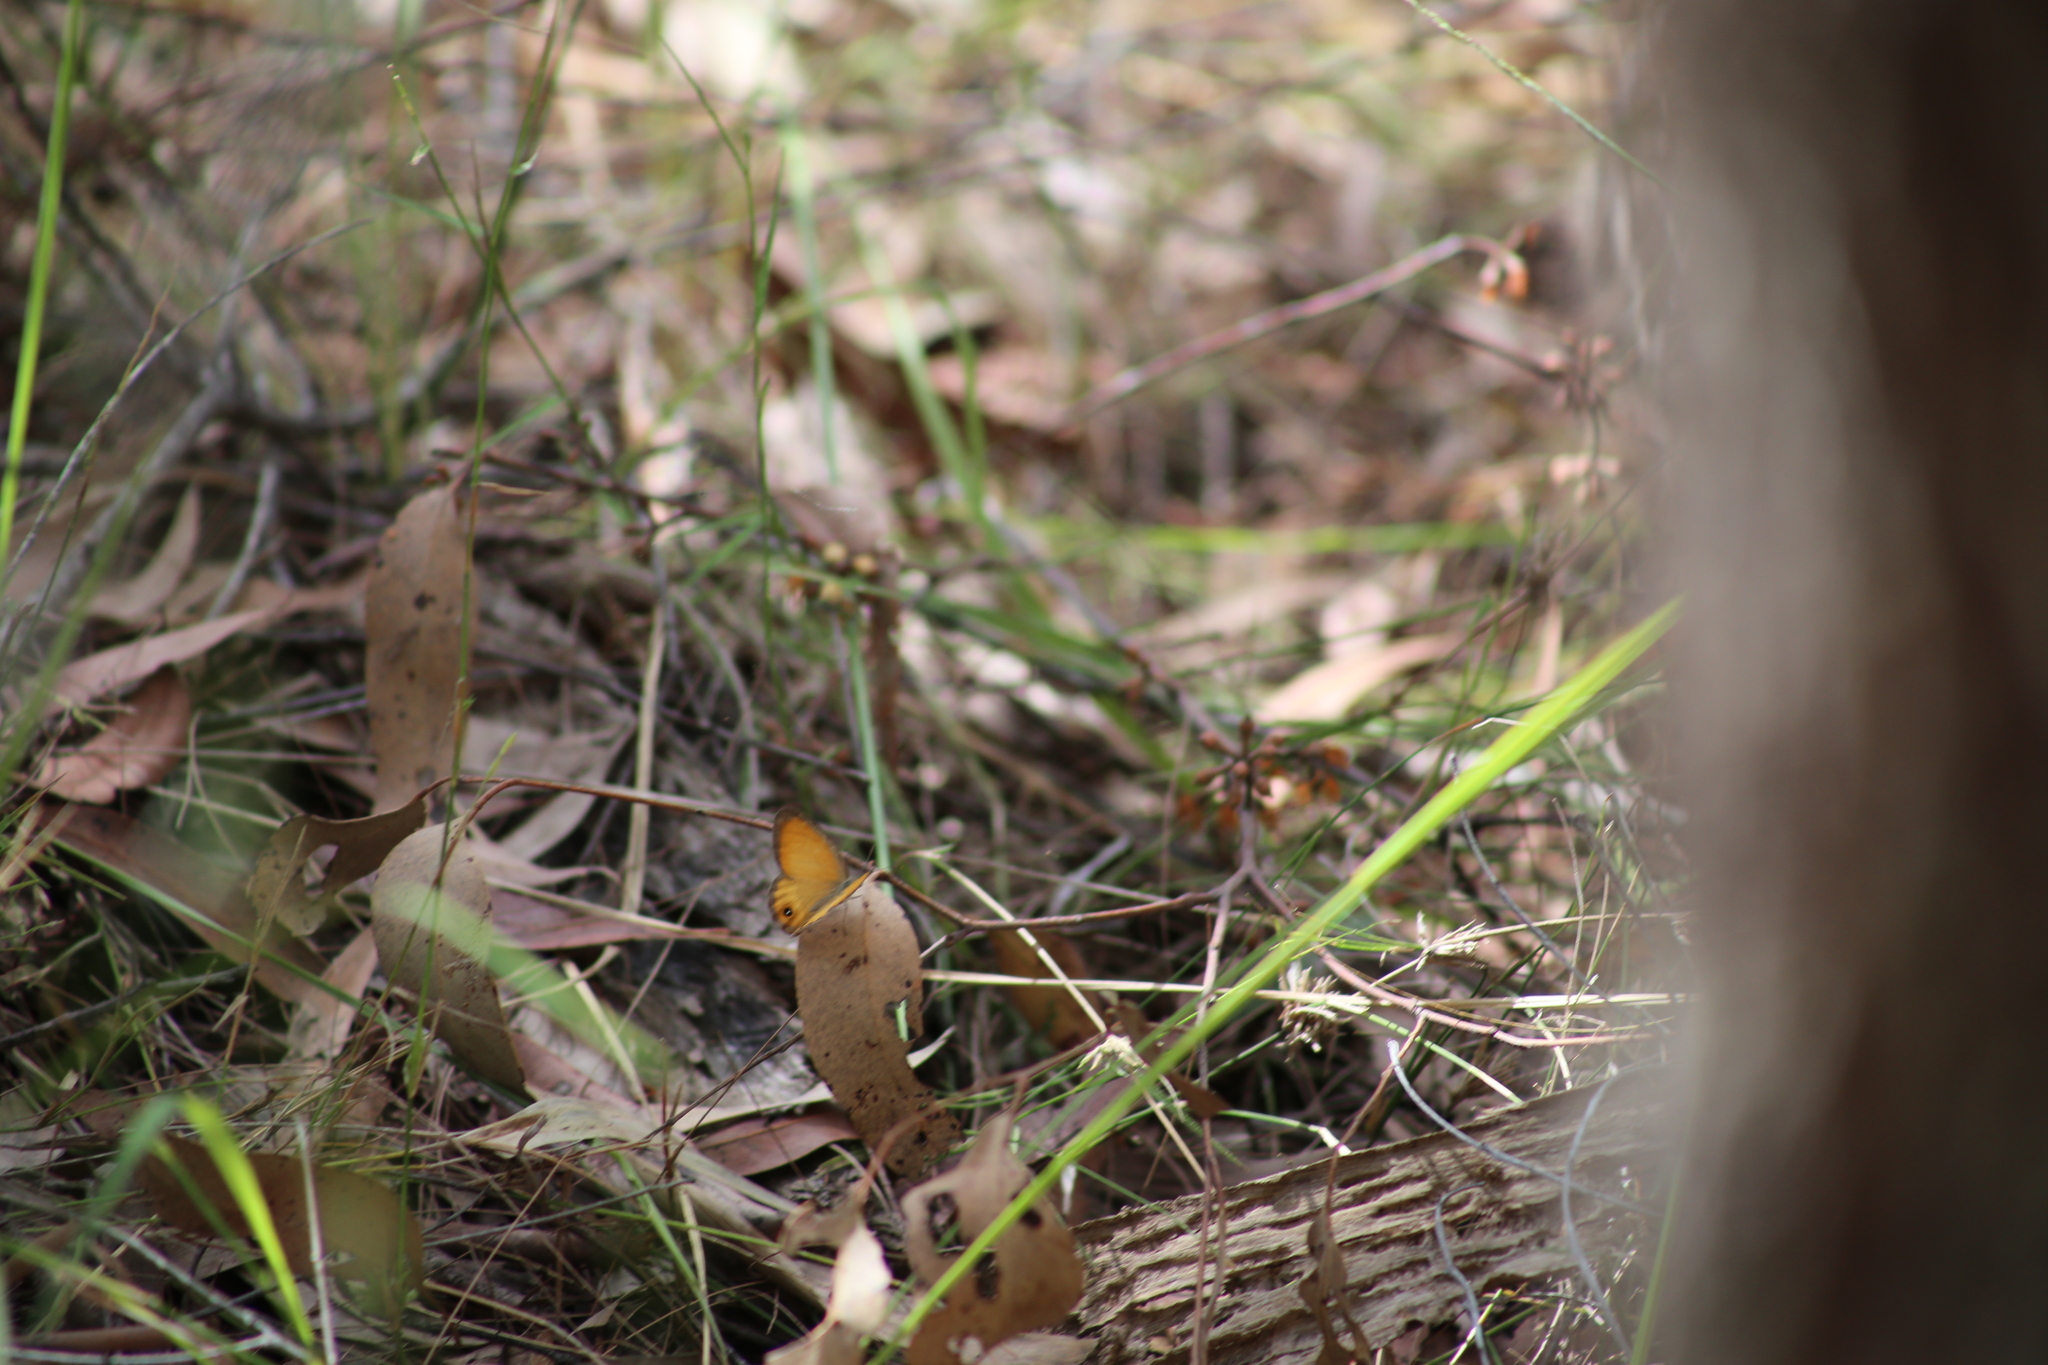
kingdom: Animalia
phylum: Arthropoda
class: Insecta
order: Lepidoptera
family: Nymphalidae
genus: Hypocysta
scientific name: Hypocysta adiante
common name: Orange ringlet
